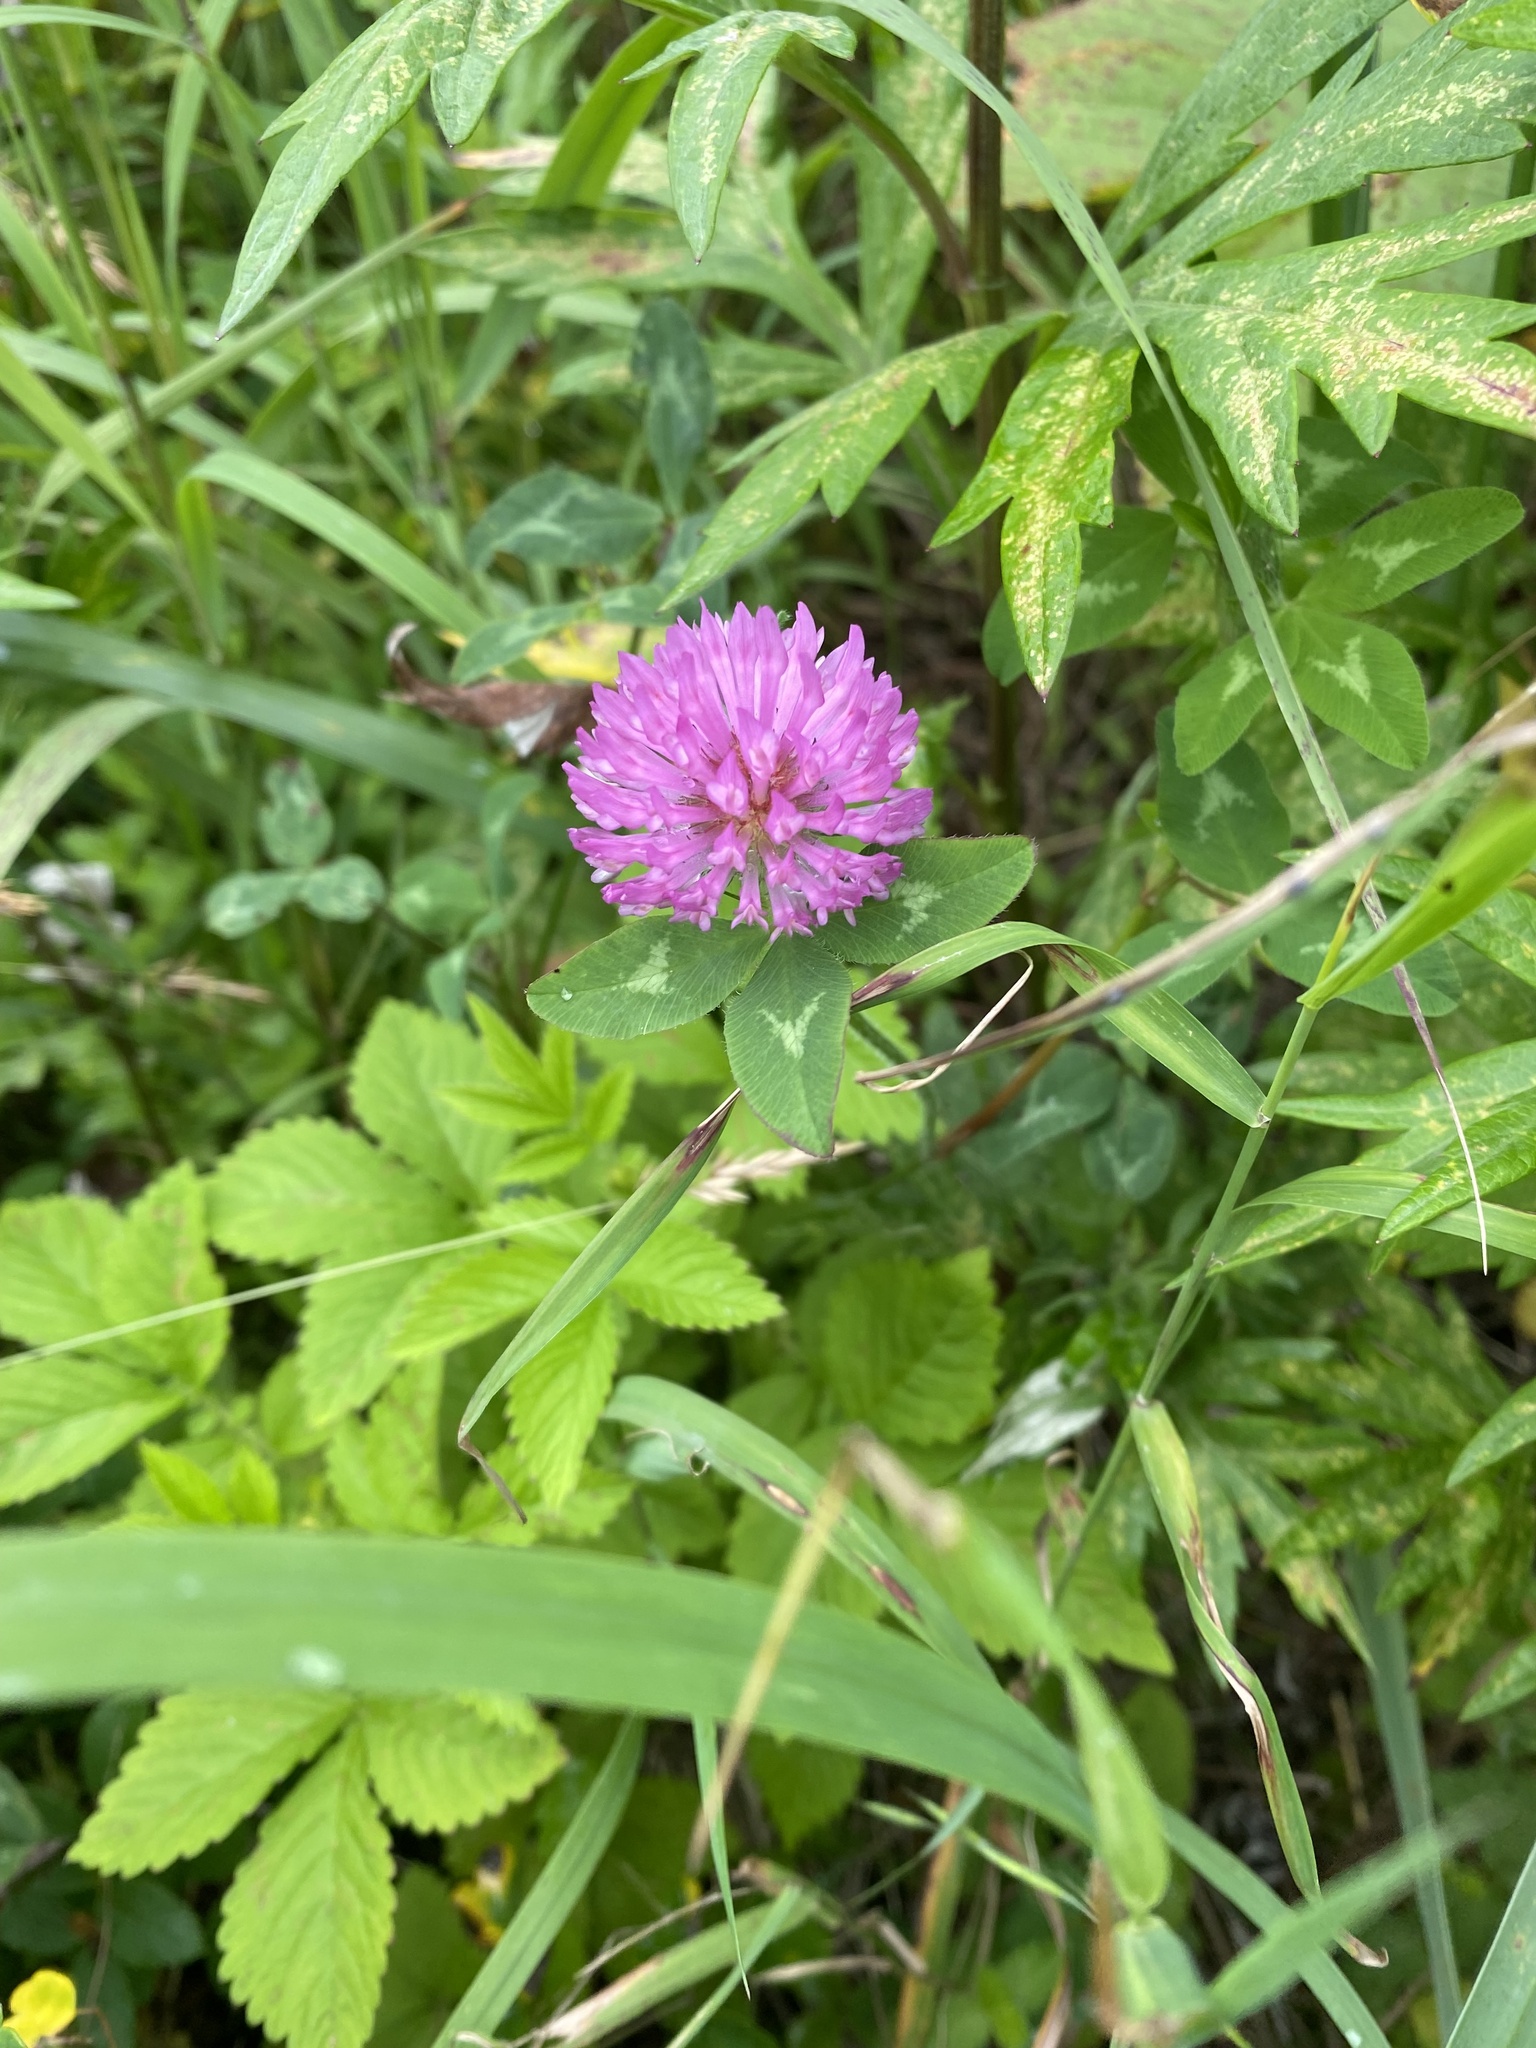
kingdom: Plantae
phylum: Tracheophyta
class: Magnoliopsida
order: Fabales
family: Fabaceae
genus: Trifolium
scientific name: Trifolium pratense
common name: Red clover
